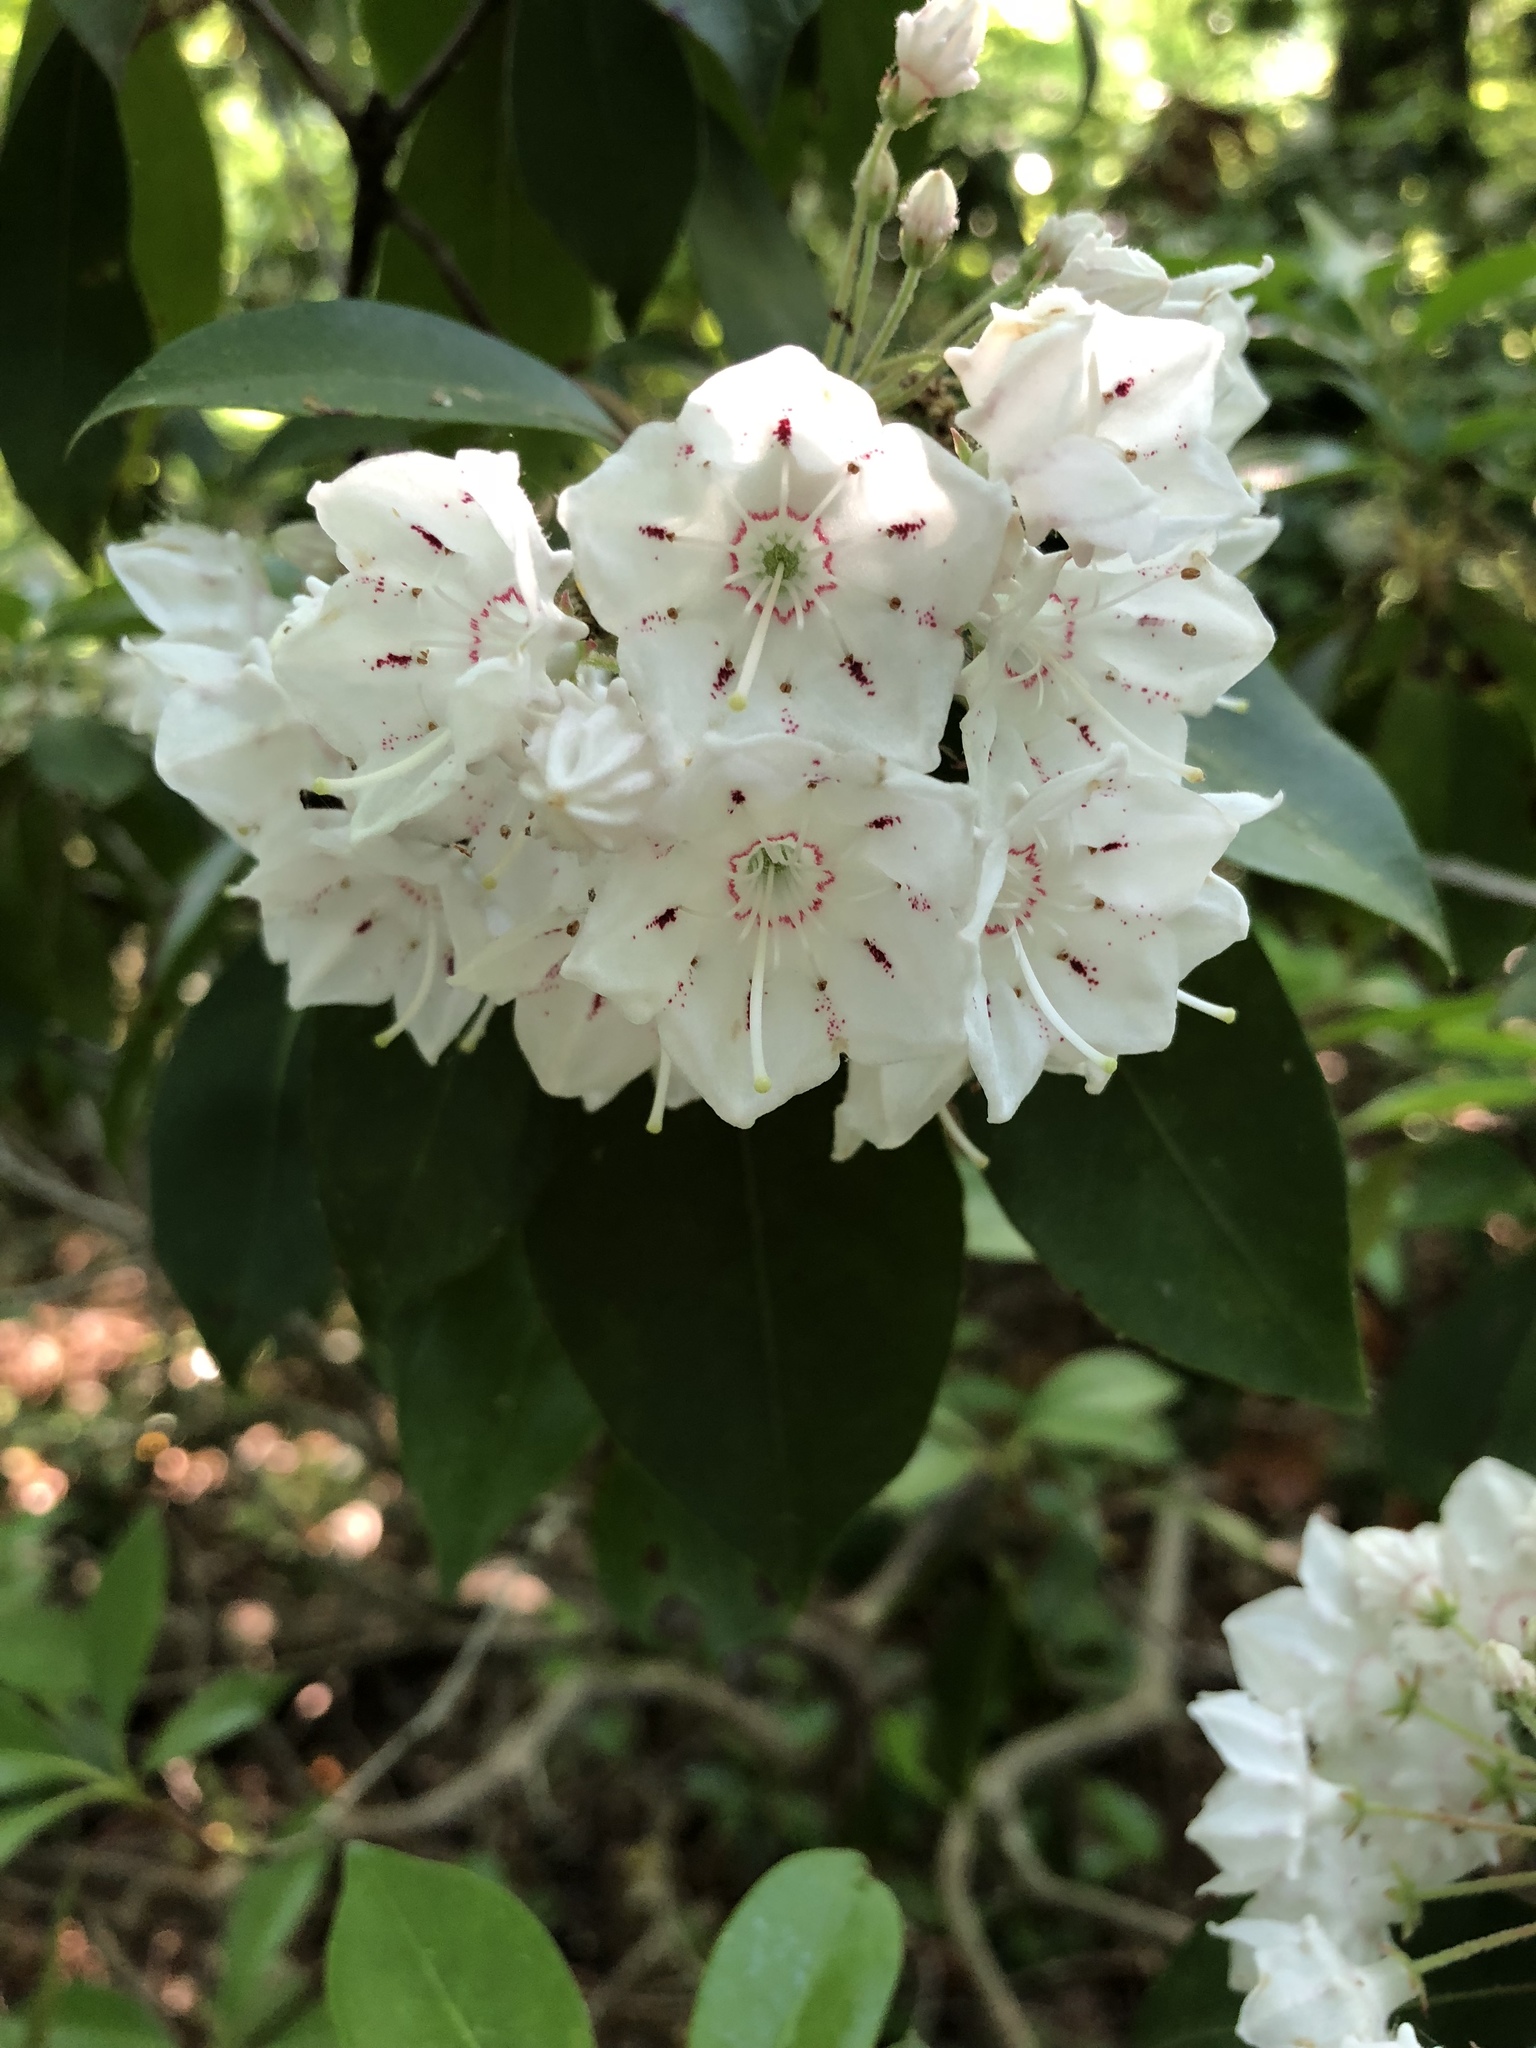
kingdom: Plantae
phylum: Tracheophyta
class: Magnoliopsida
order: Ericales
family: Ericaceae
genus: Kalmia
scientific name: Kalmia latifolia
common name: Mountain-laurel
